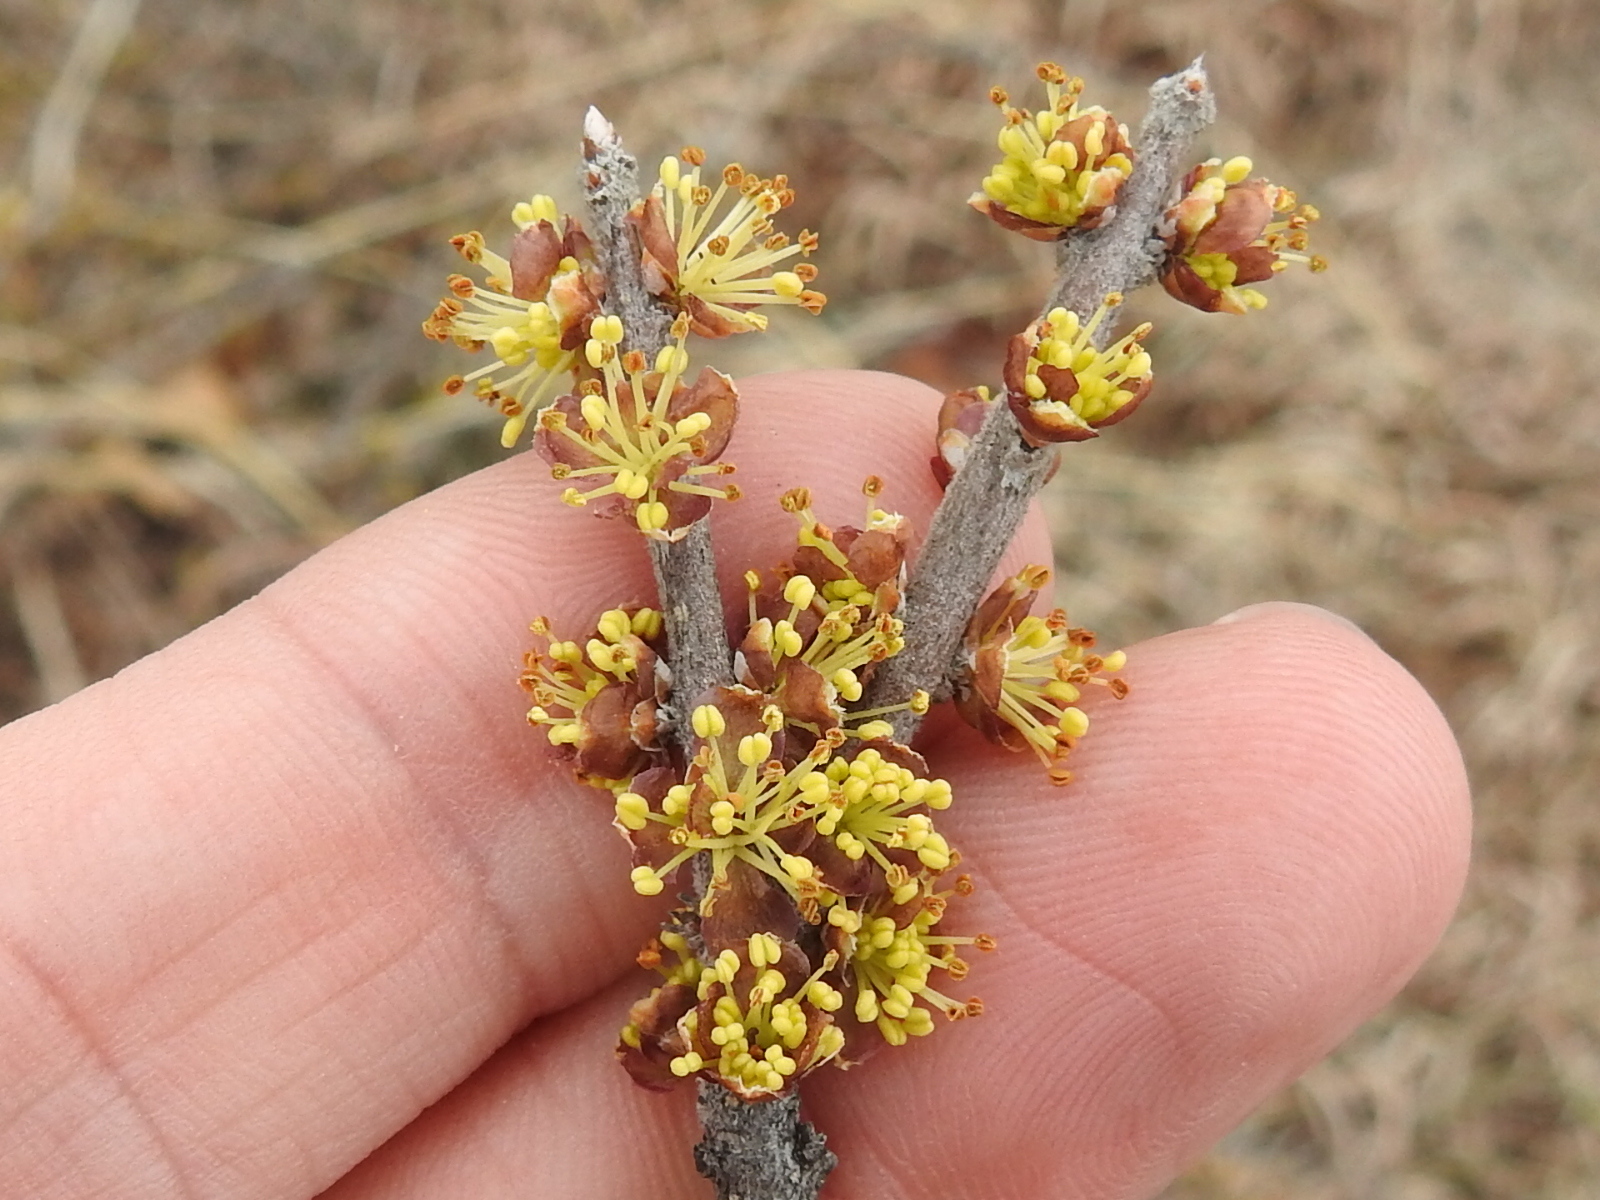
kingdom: Plantae
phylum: Tracheophyta
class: Magnoliopsida
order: Lamiales
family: Oleaceae
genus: Forestiera
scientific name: Forestiera pubescens
